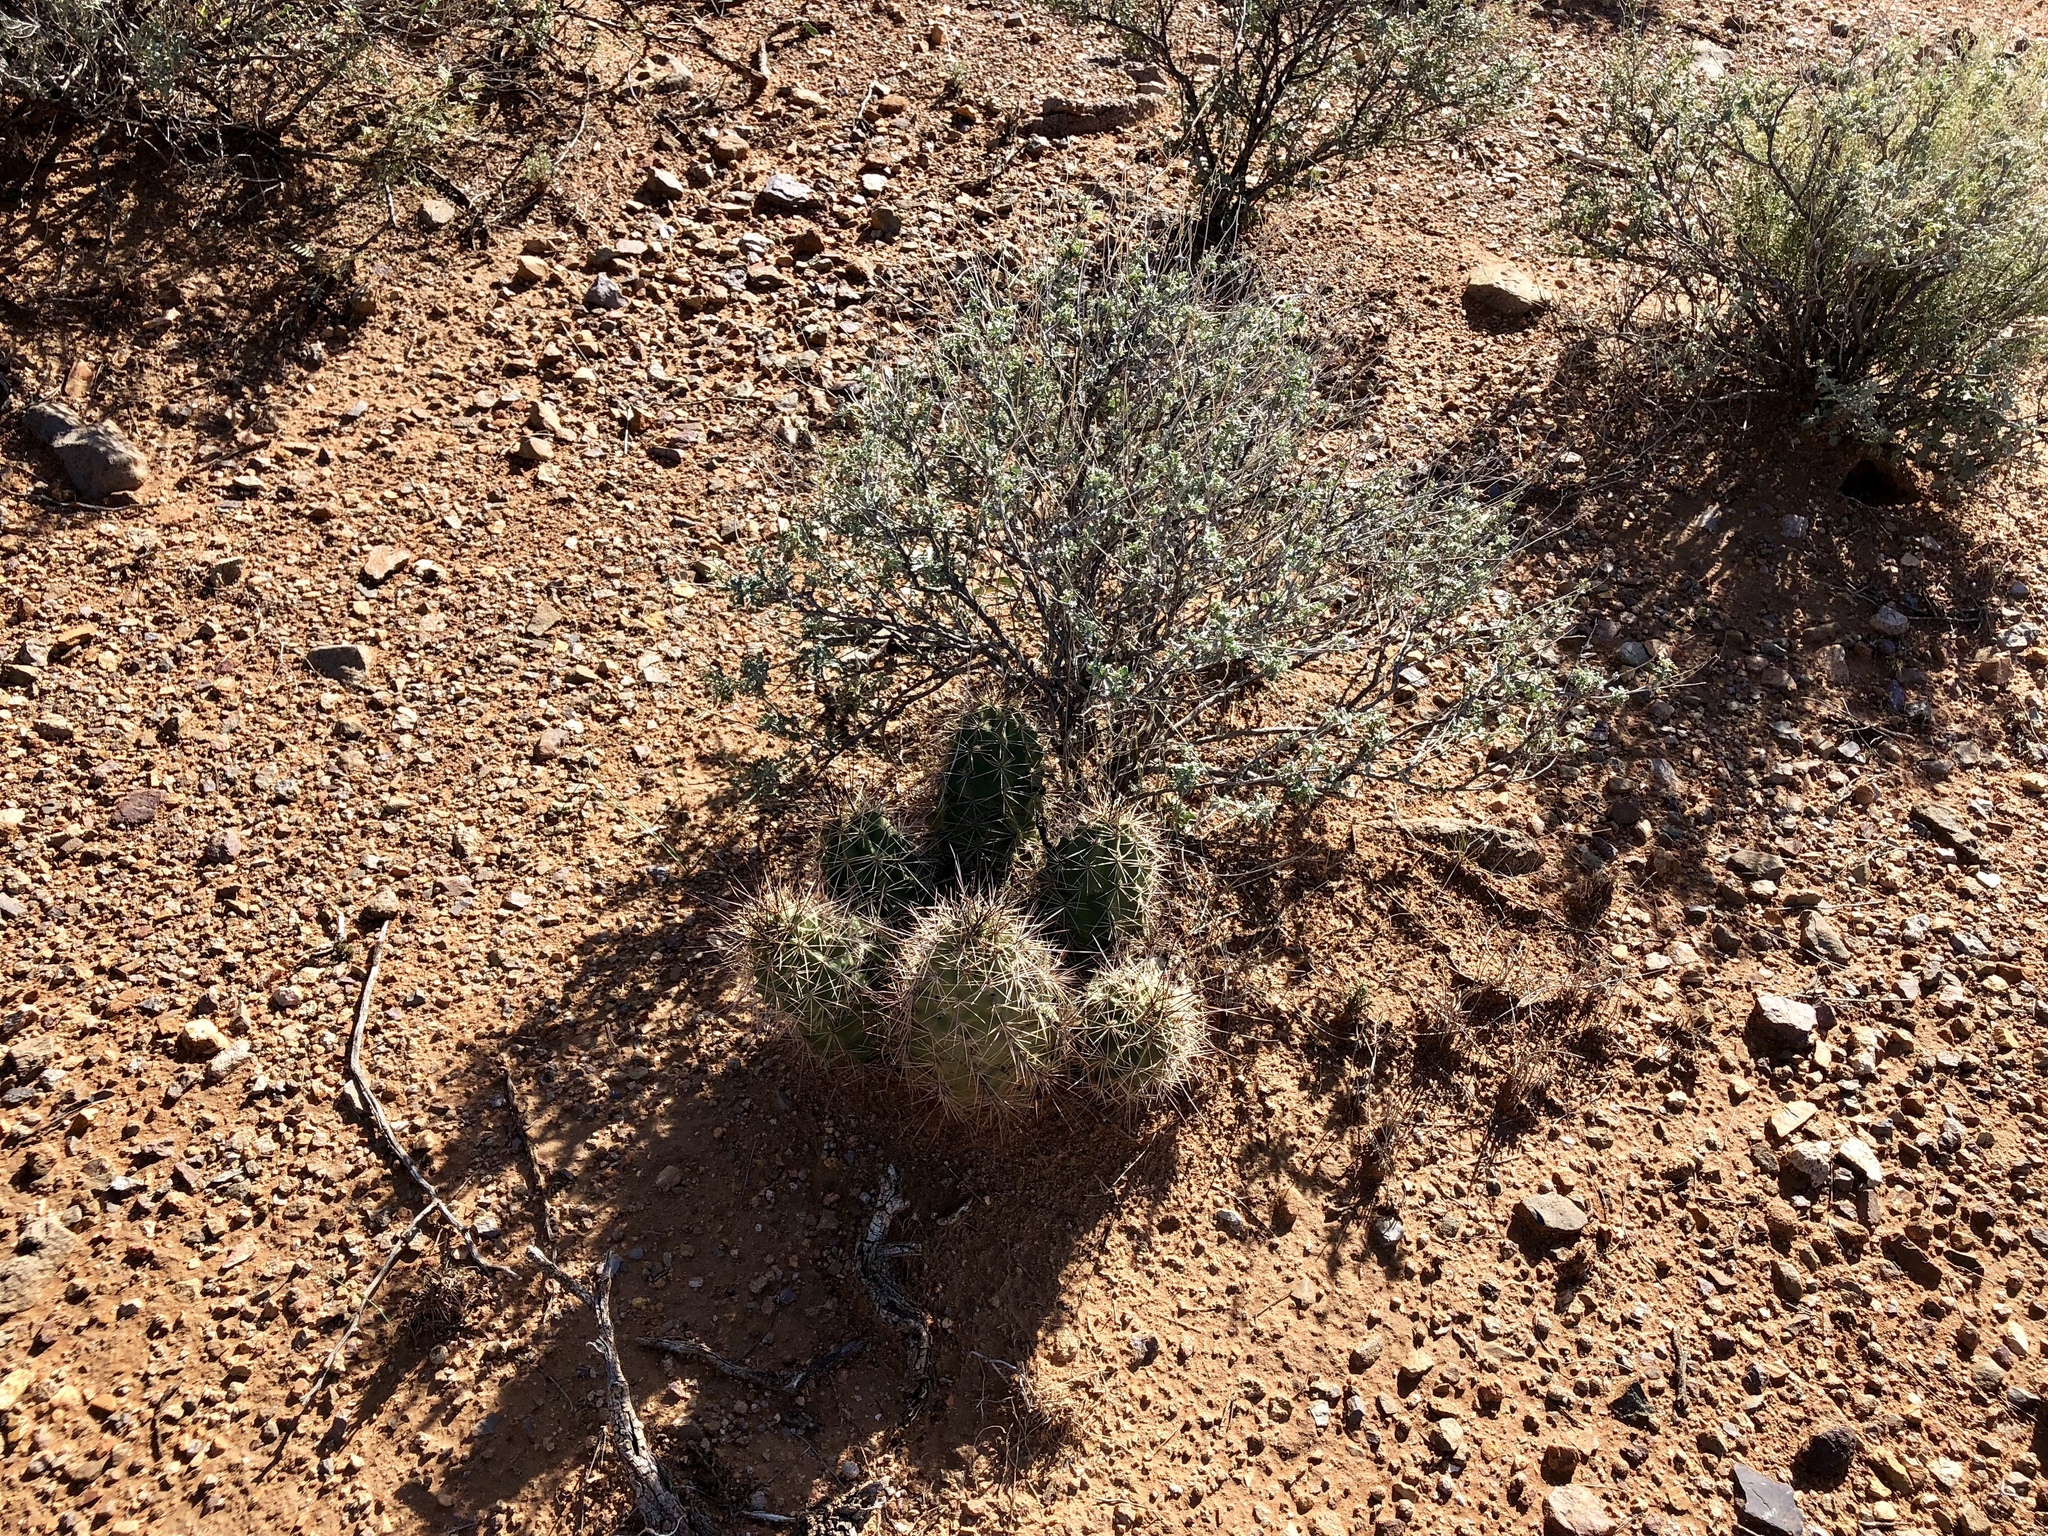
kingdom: Plantae
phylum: Tracheophyta
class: Magnoliopsida
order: Caryophyllales
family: Cactaceae
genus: Echinocereus
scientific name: Echinocereus coccineus
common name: Scarlet hedgehog cactus
